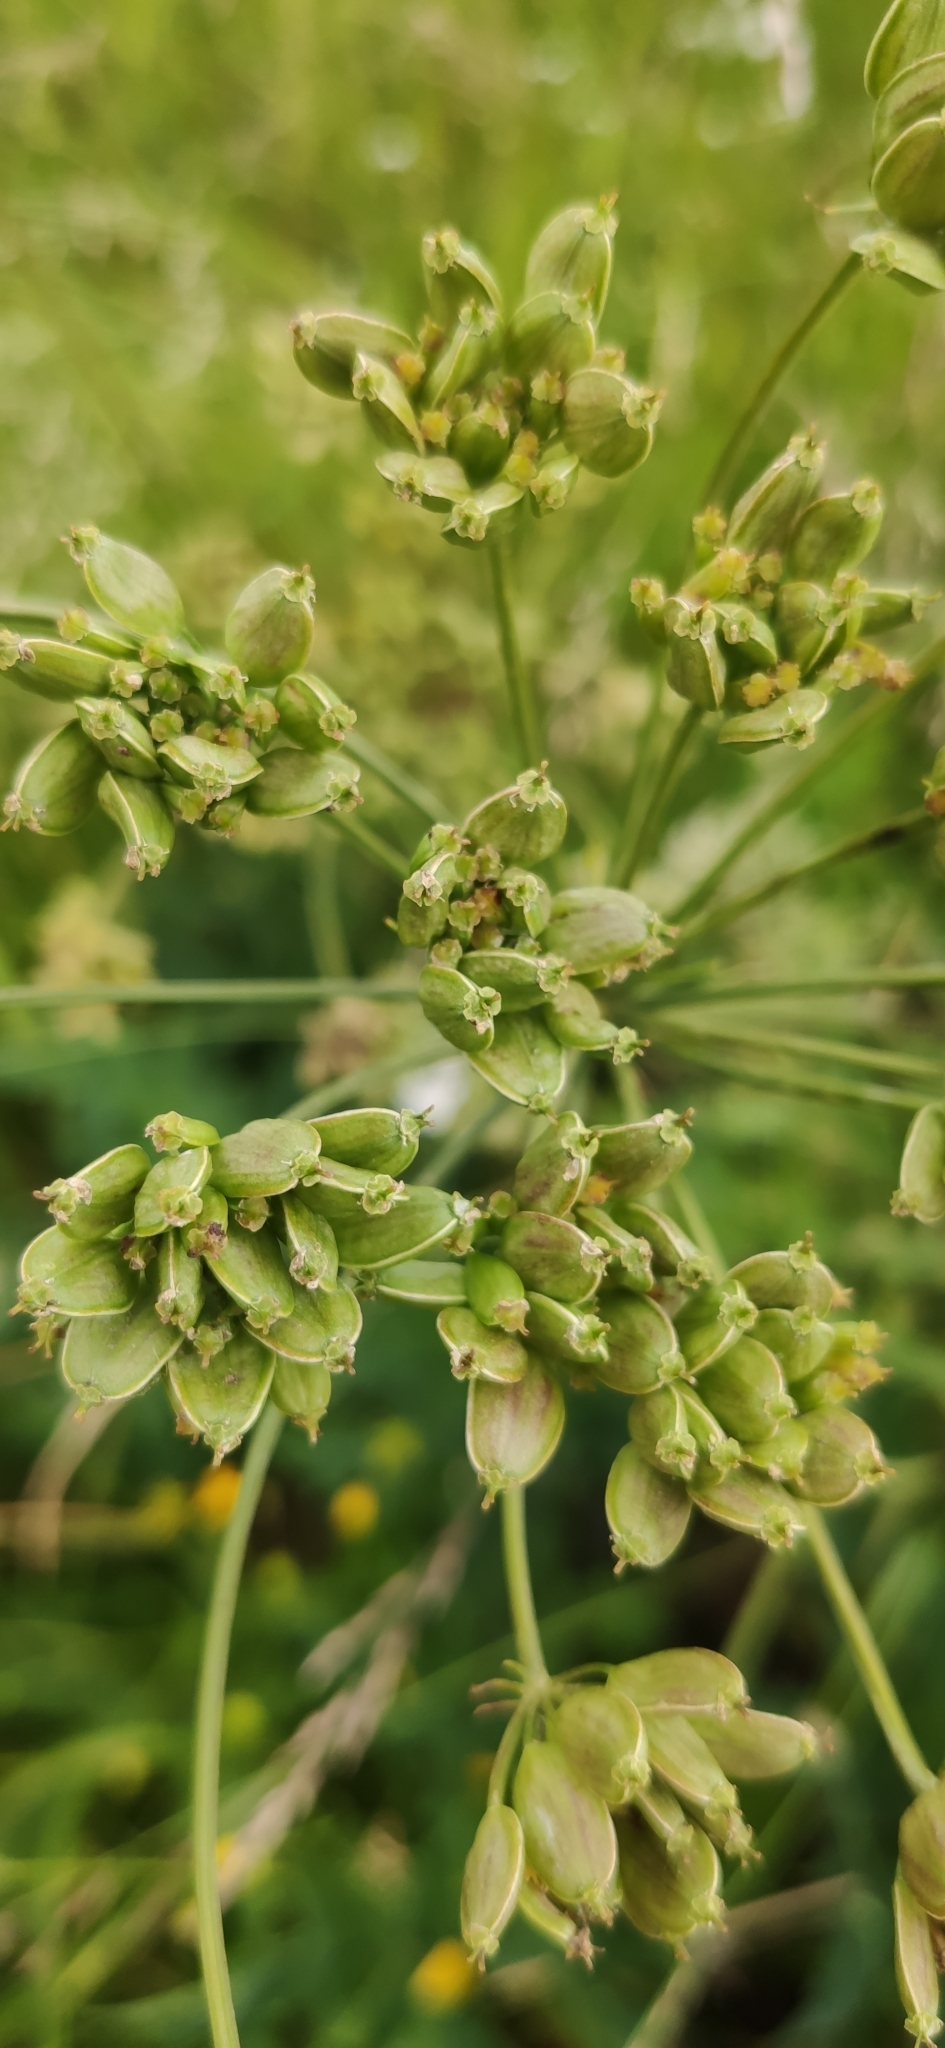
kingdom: Plantae
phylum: Tracheophyta
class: Magnoliopsida
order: Apiales
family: Apiaceae
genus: Heracleum
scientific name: Heracleum sphondylium
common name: Hogweed
